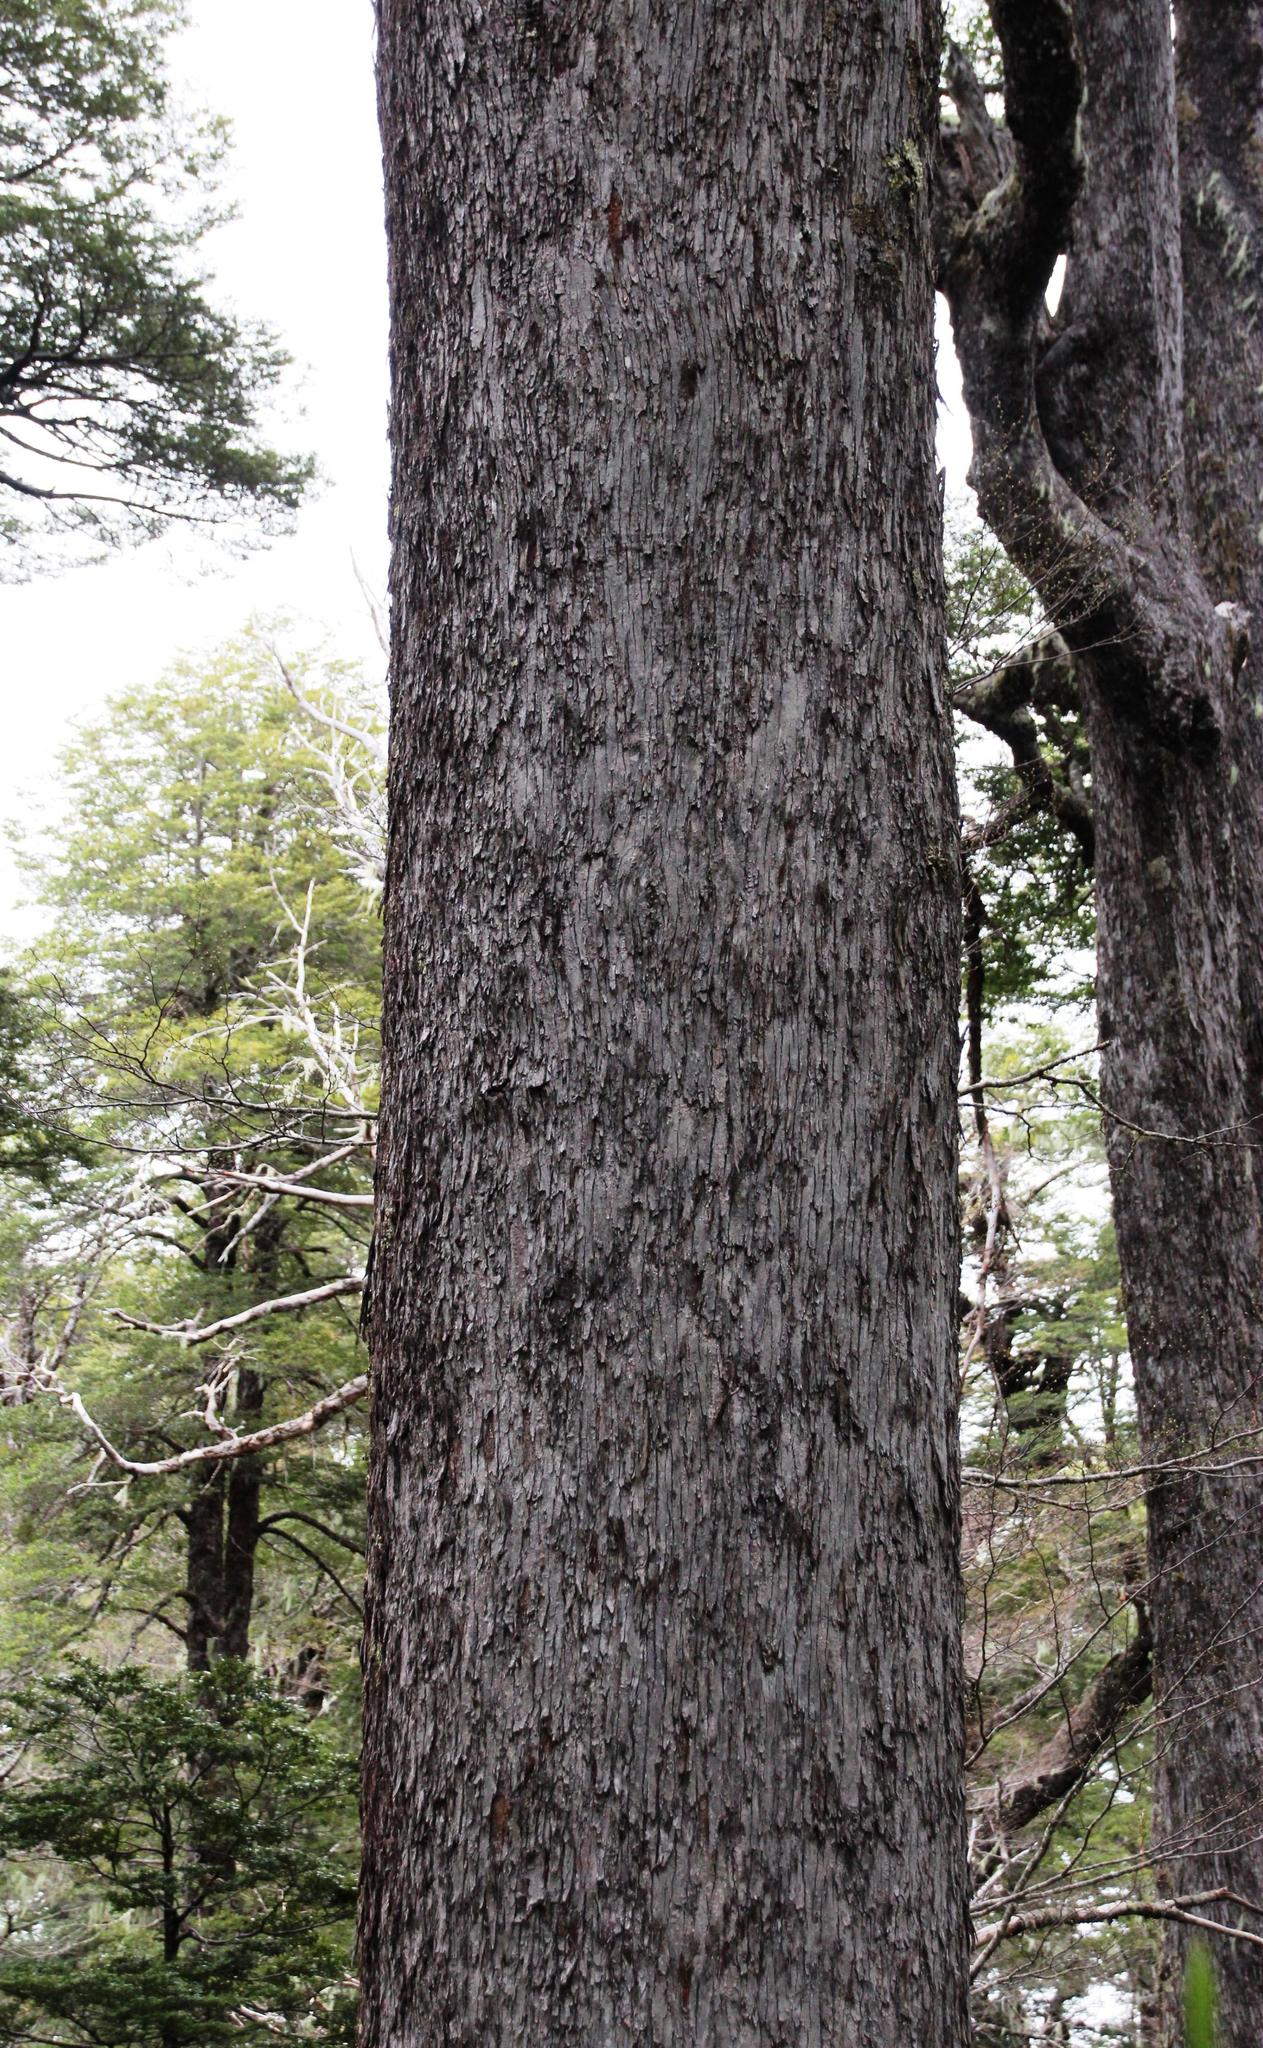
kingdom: Plantae
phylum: Tracheophyta
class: Magnoliopsida
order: Fagales
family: Nothofagaceae
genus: Nothofagus
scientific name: Nothofagus dombeyi
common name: Coigue
